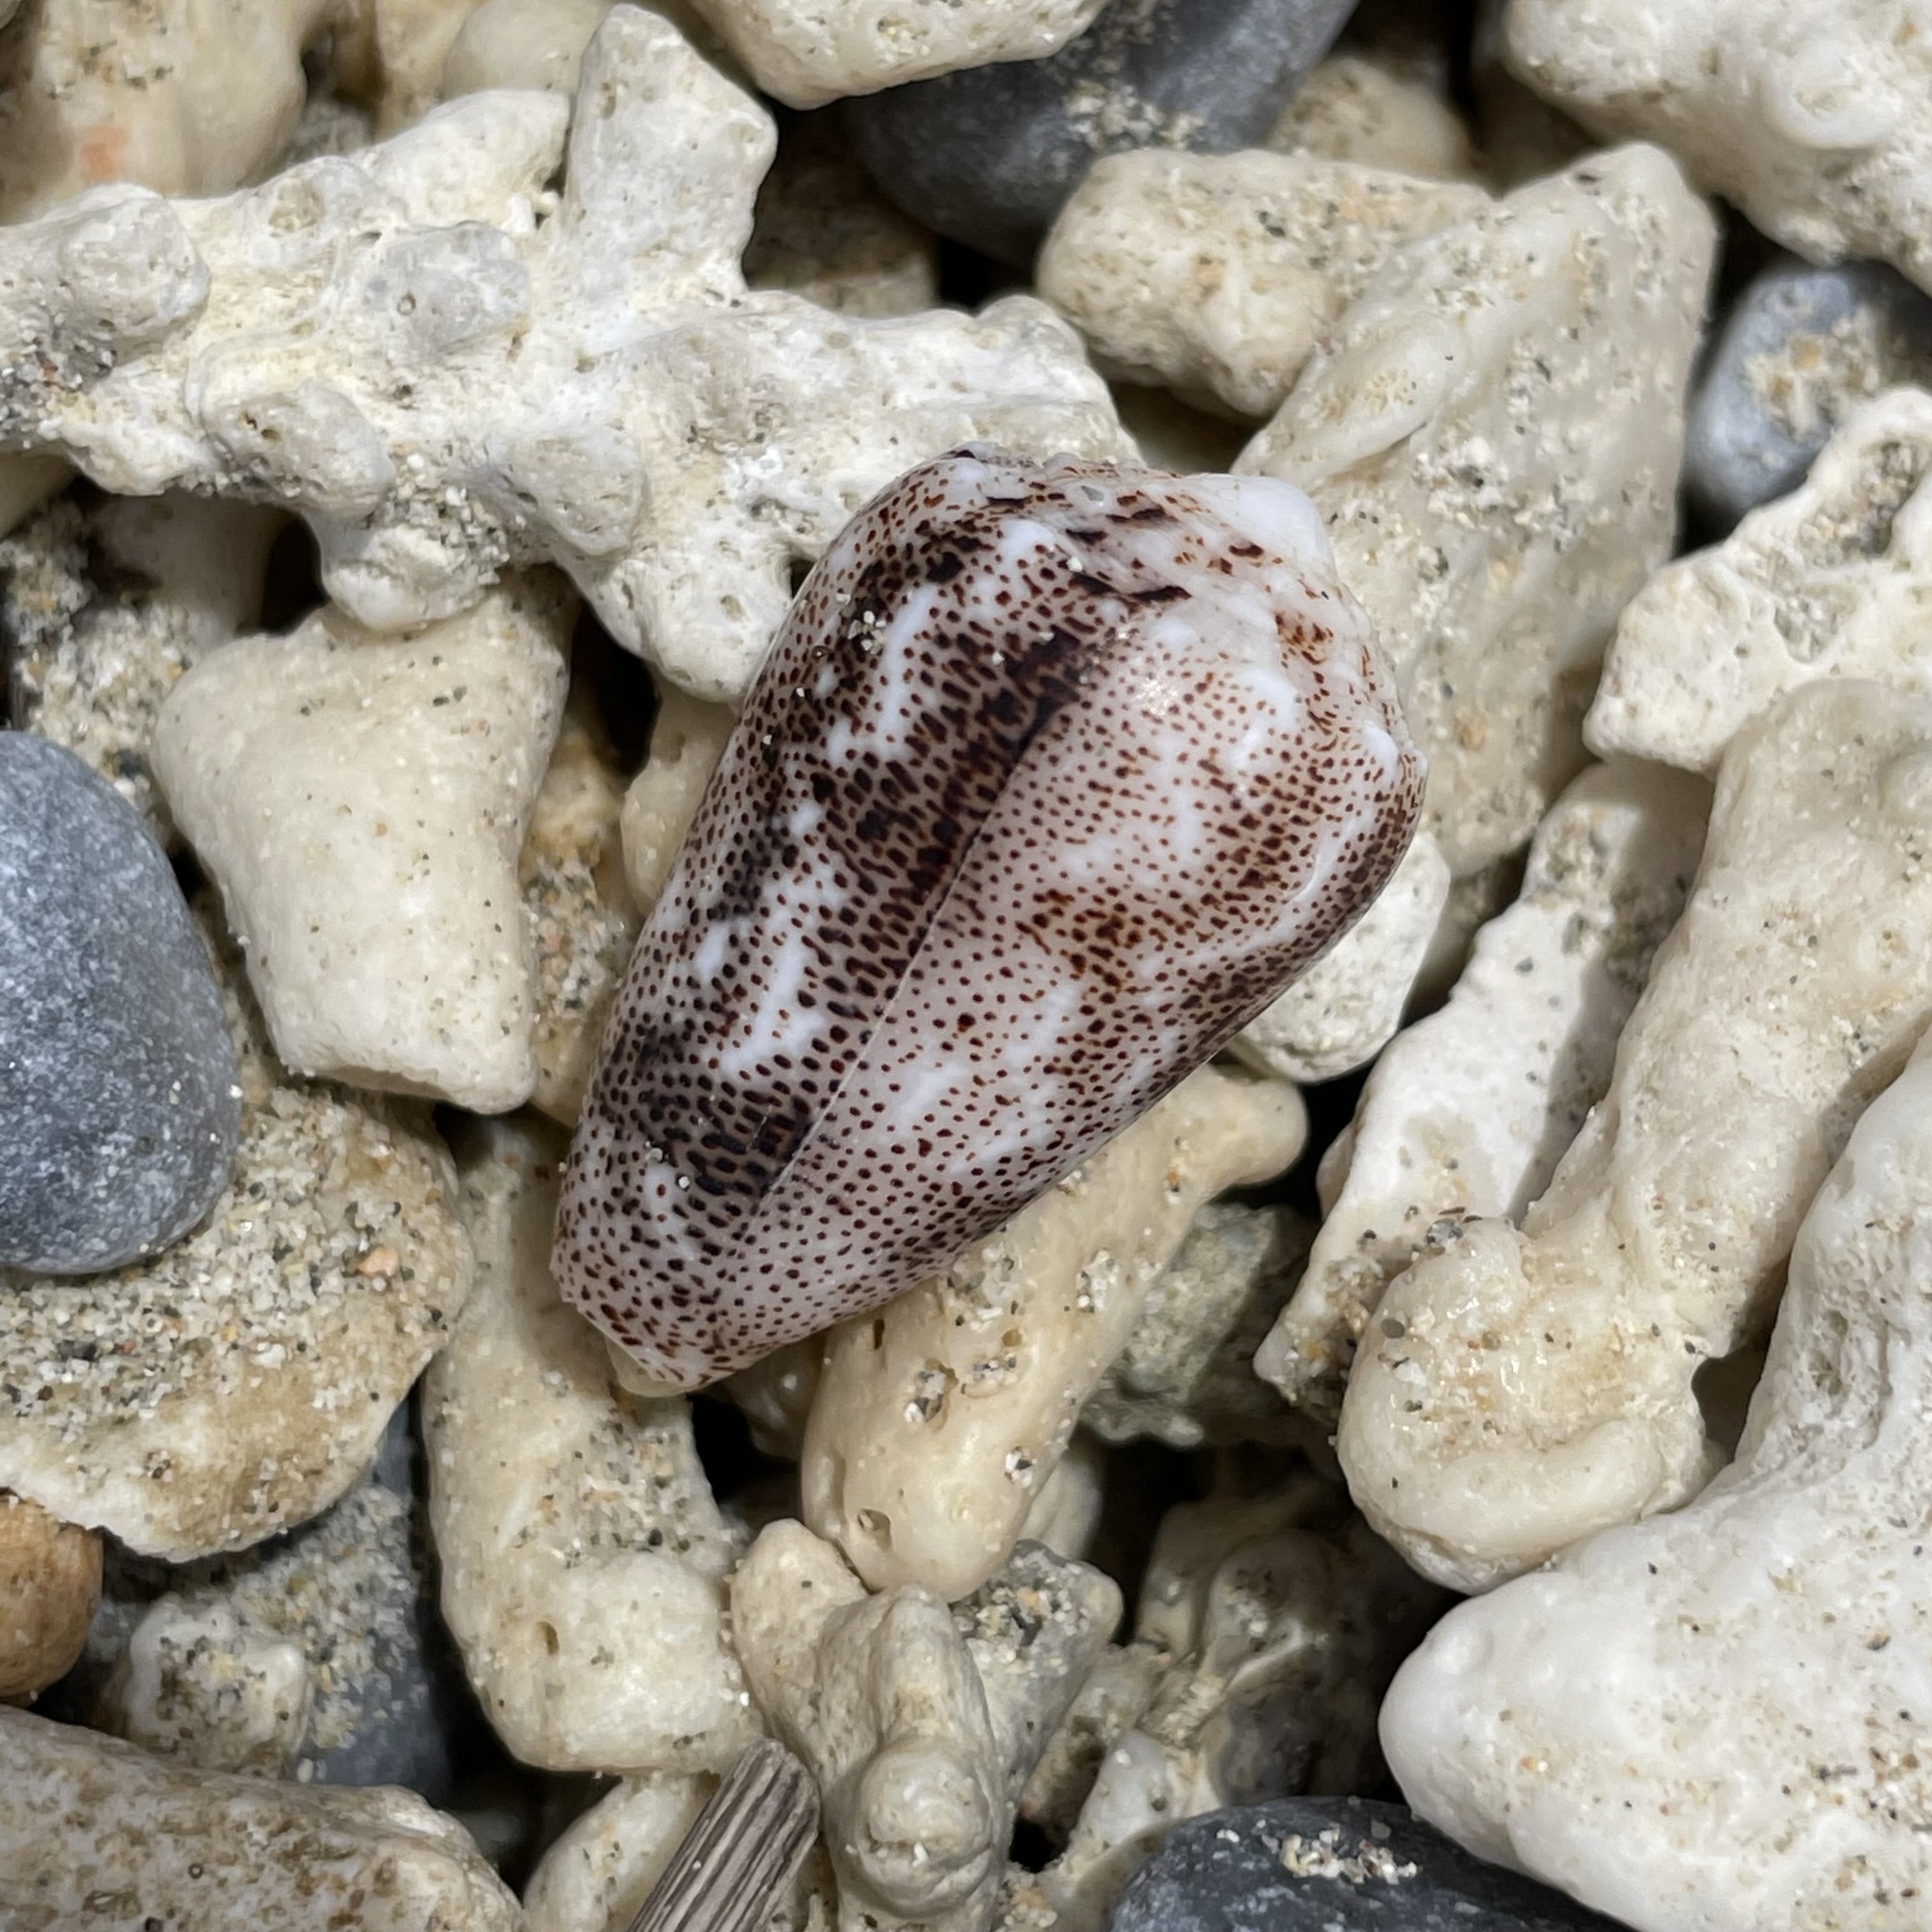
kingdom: Animalia
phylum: Mollusca
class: Gastropoda
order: Neogastropoda
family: Conidae
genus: Conus
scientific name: Conus arenatus
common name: Sand-dusted cone
